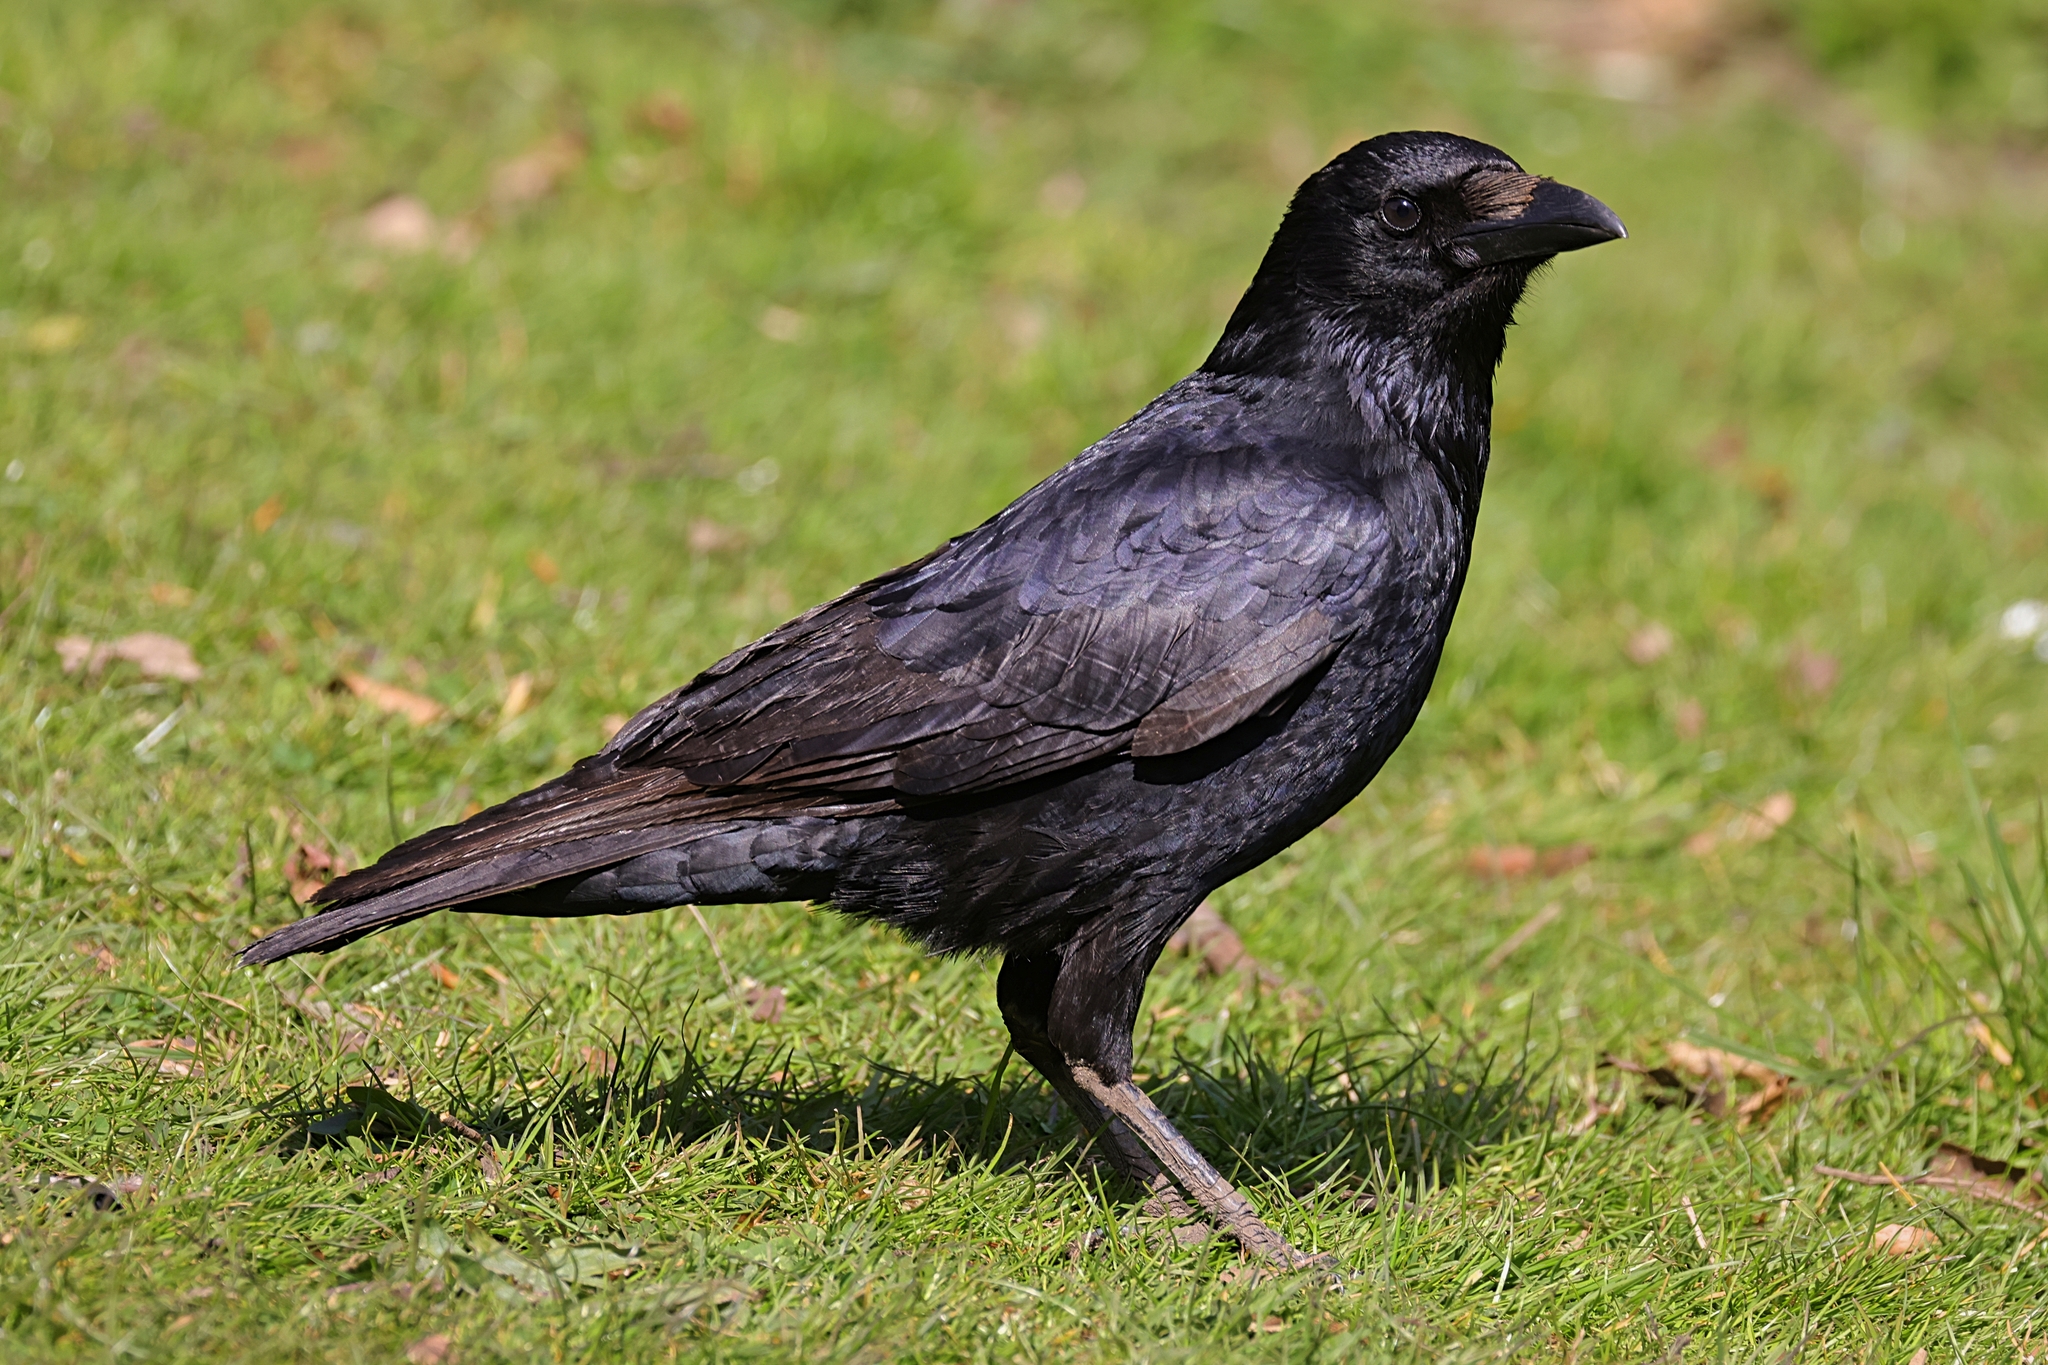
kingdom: Animalia
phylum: Chordata
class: Aves
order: Passeriformes
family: Corvidae
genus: Corvus
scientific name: Corvus corone
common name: Carrion crow
